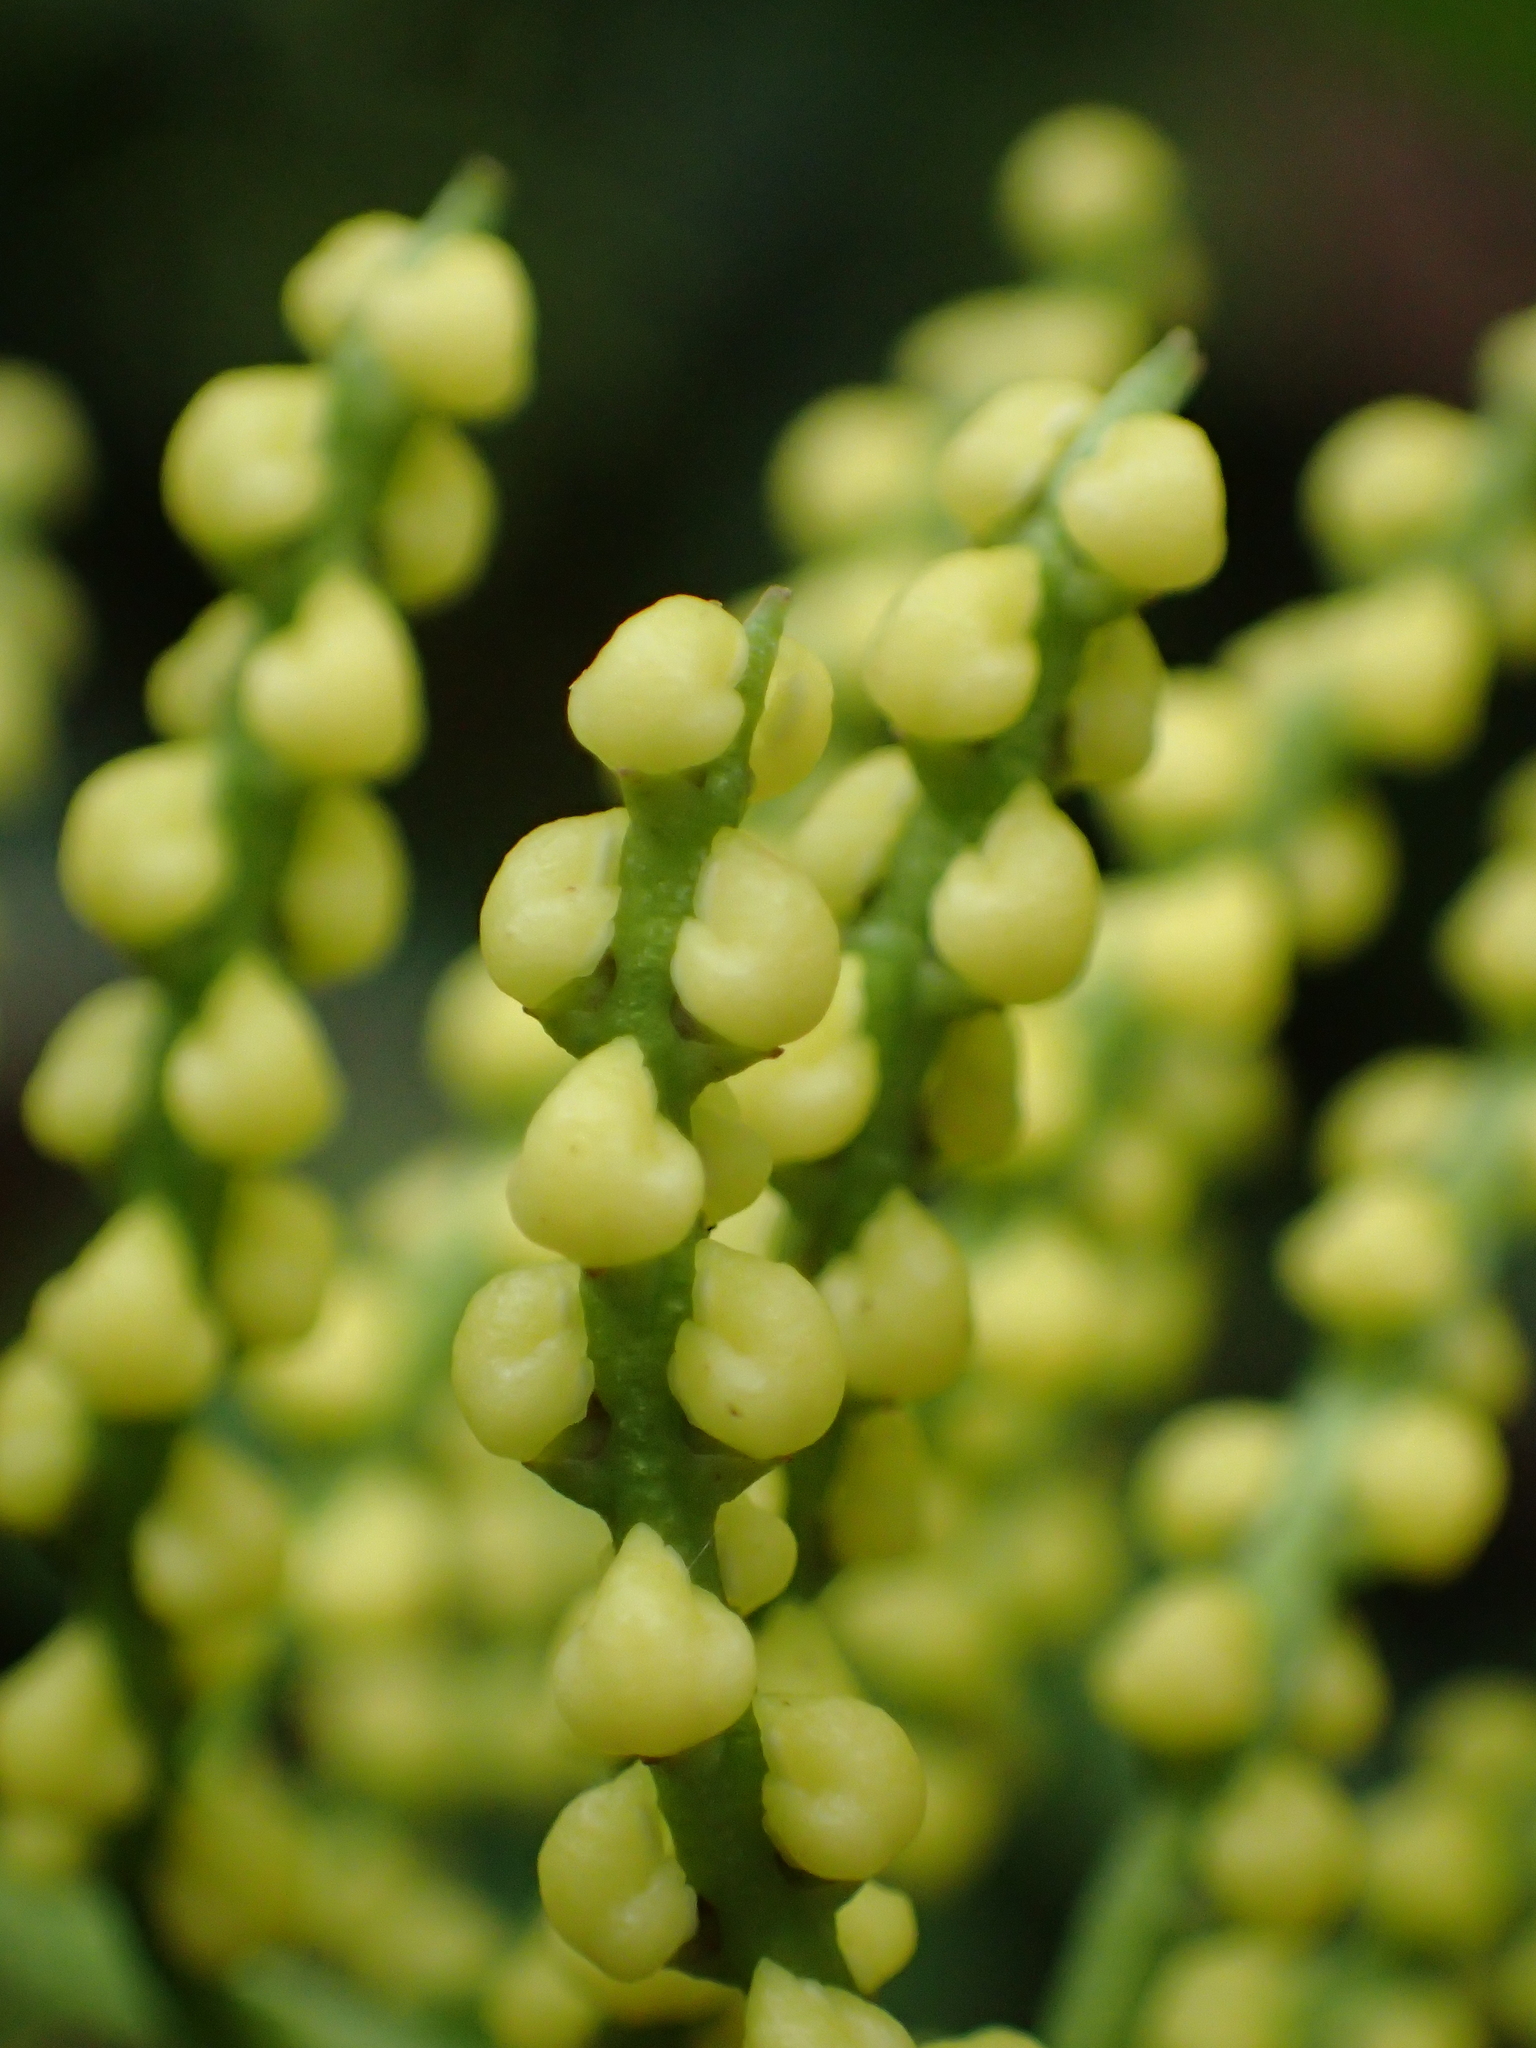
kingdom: Plantae
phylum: Tracheophyta
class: Magnoliopsida
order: Chloranthales
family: Chloranthaceae
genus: Chloranthus
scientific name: Chloranthus spicatus
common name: Chulantree
